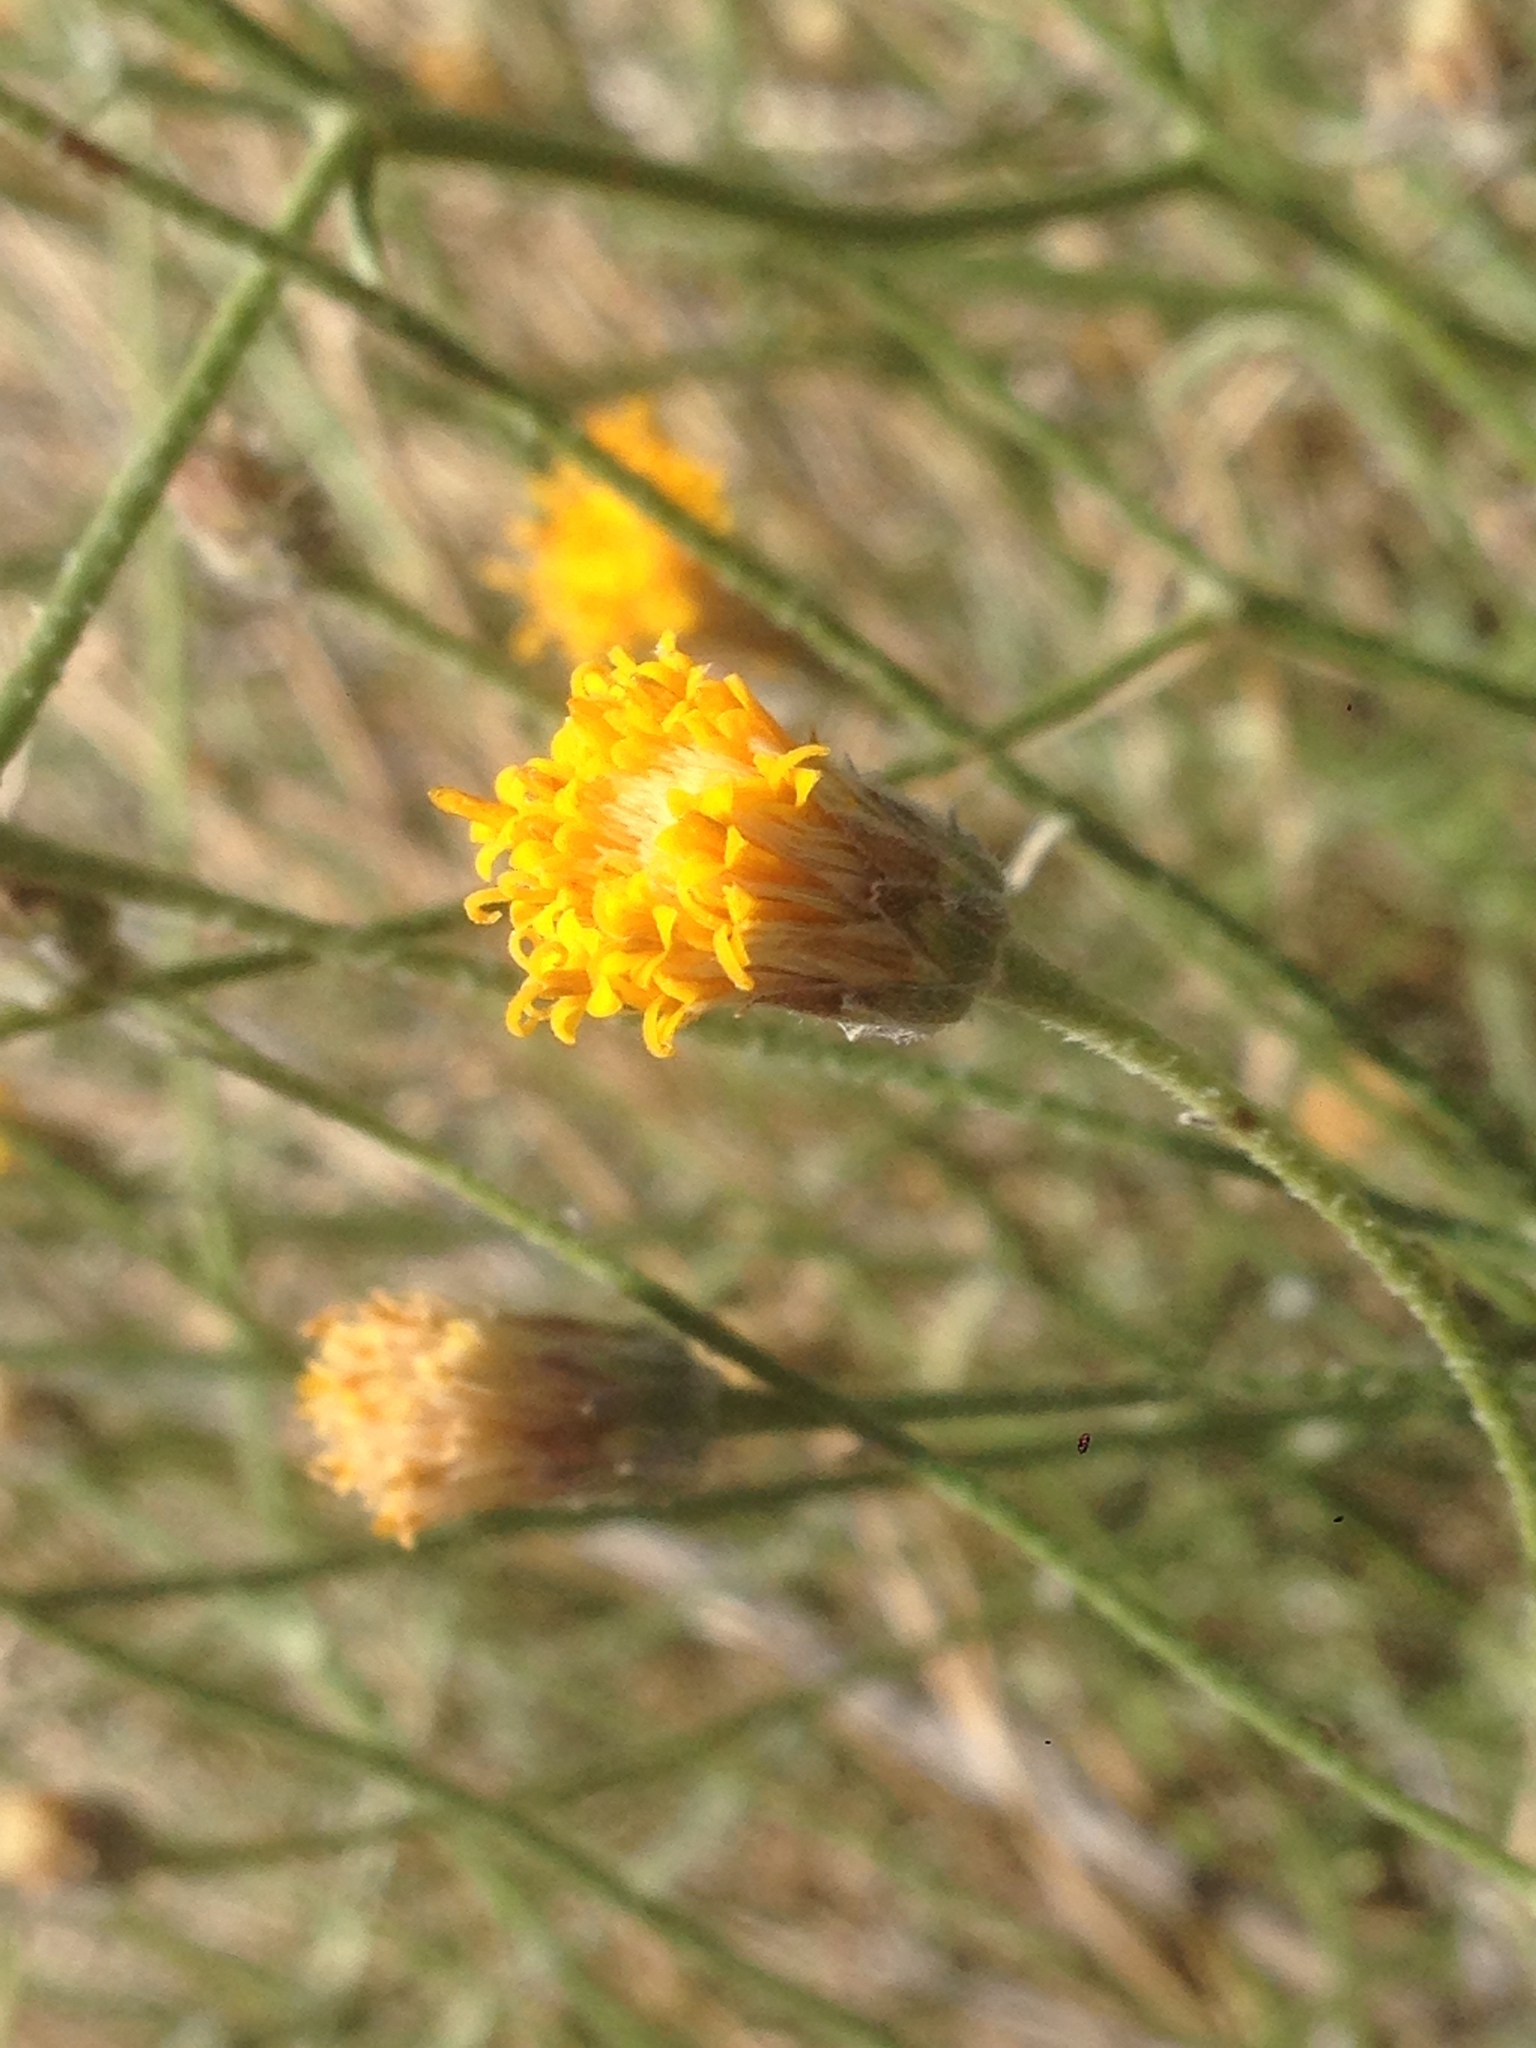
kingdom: Plantae
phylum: Tracheophyta
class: Magnoliopsida
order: Asterales
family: Asteraceae
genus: Bebbia
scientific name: Bebbia juncea
